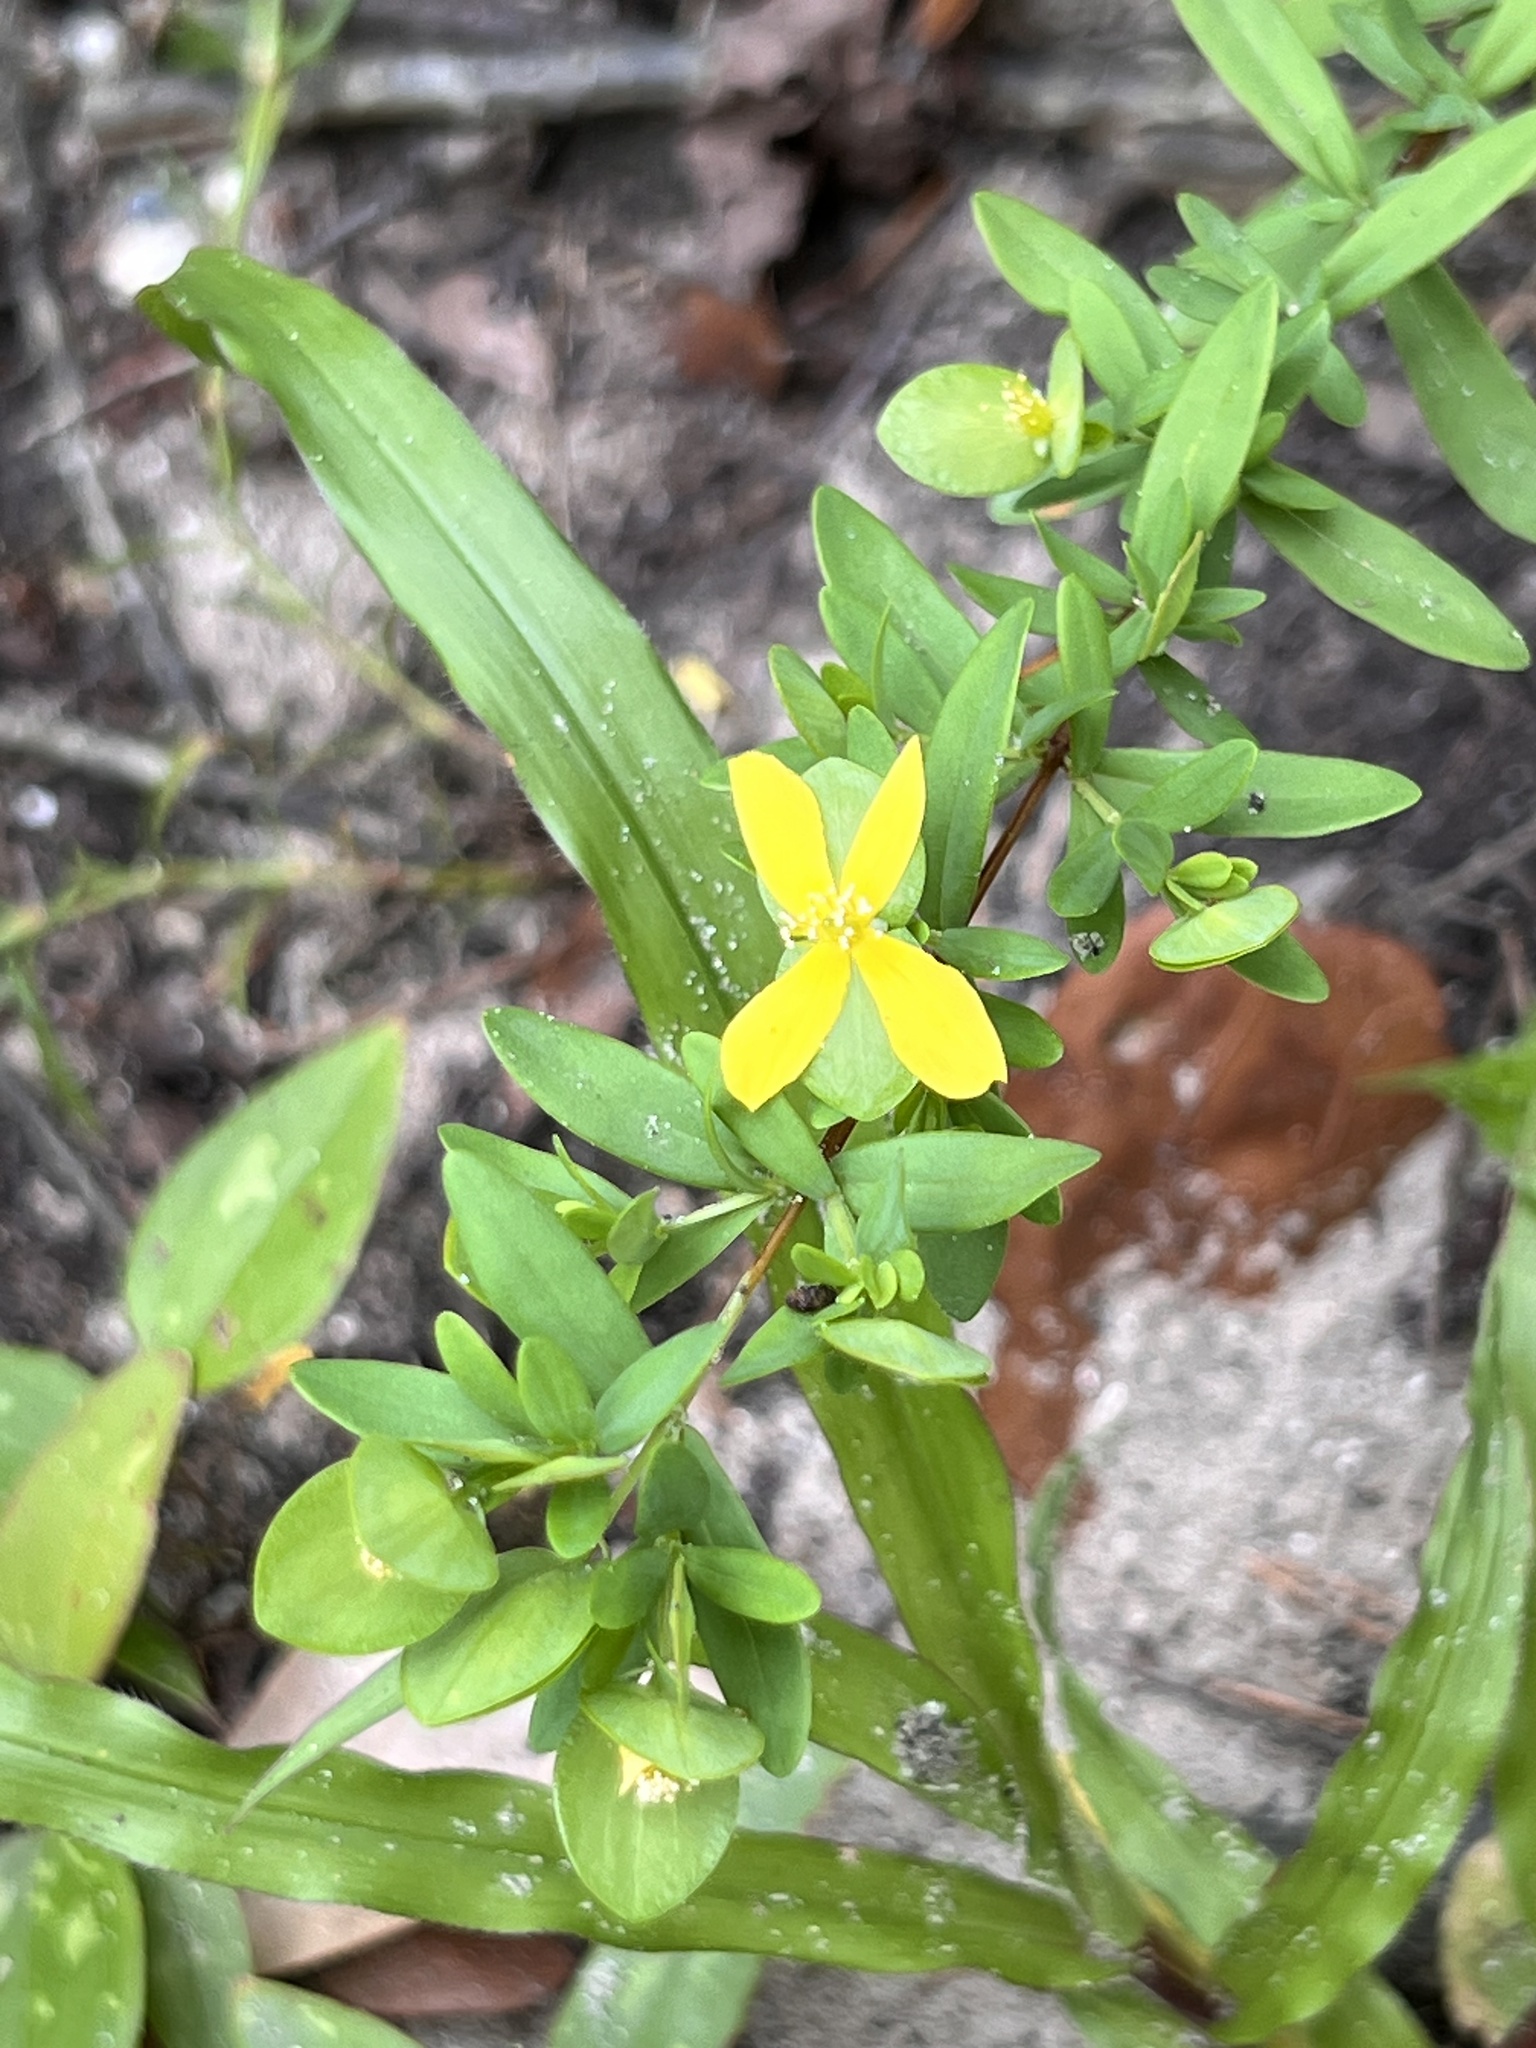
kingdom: Plantae
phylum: Tracheophyta
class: Magnoliopsida
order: Malpighiales
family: Hypericaceae
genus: Hypericum
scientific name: Hypericum hypericoides
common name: St. andrew's cross
